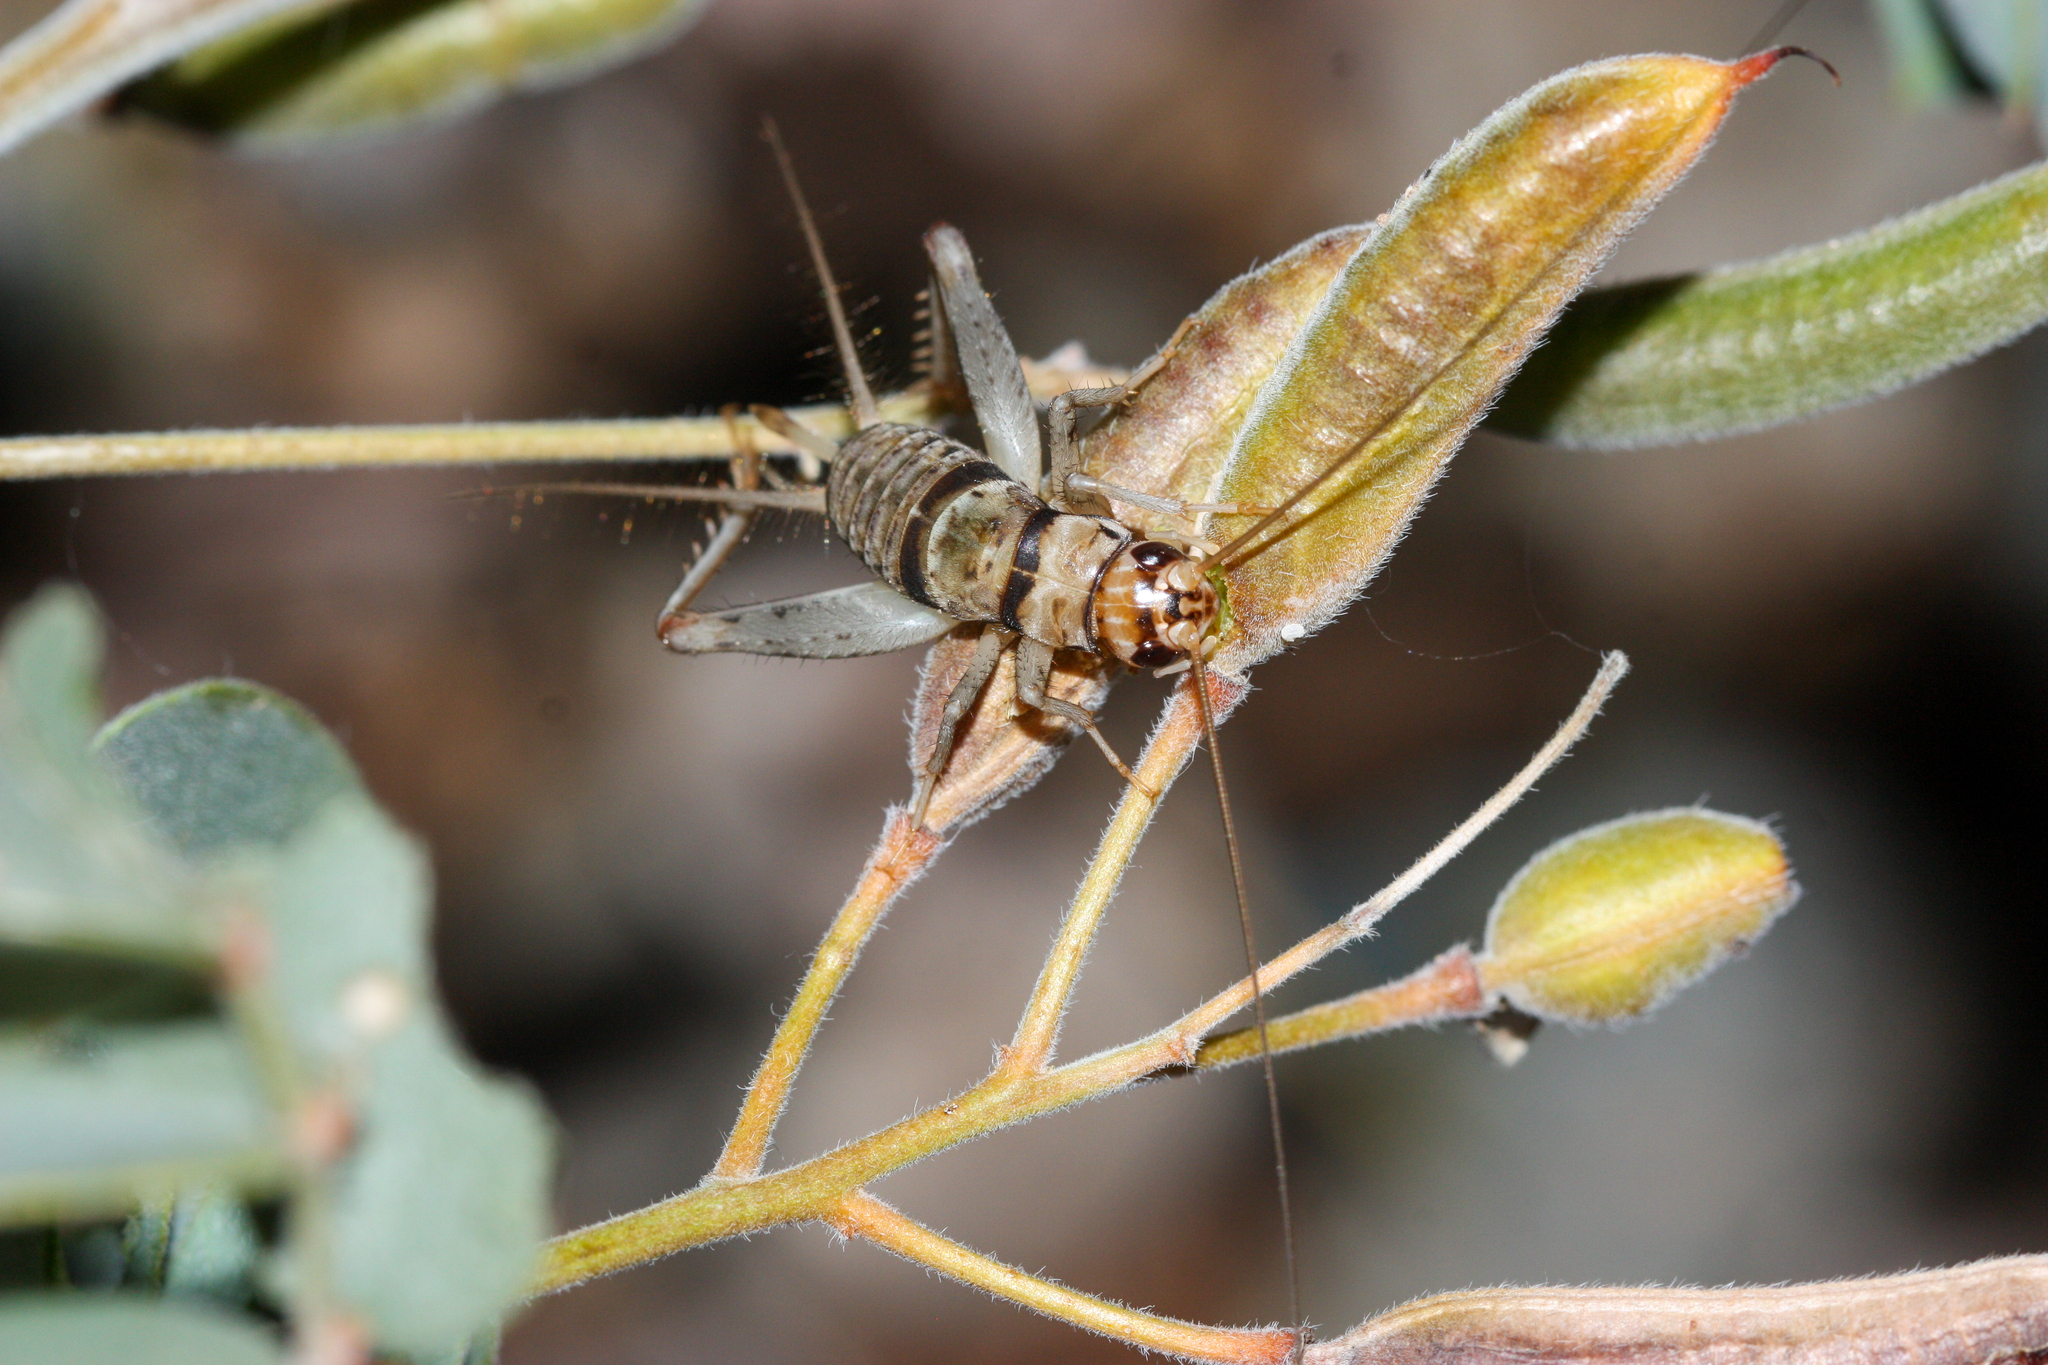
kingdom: Animalia
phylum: Arthropoda
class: Insecta
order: Orthoptera
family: Gryllidae
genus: Gryllodes
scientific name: Gryllodes sigillatus
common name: Tropical house cricket
